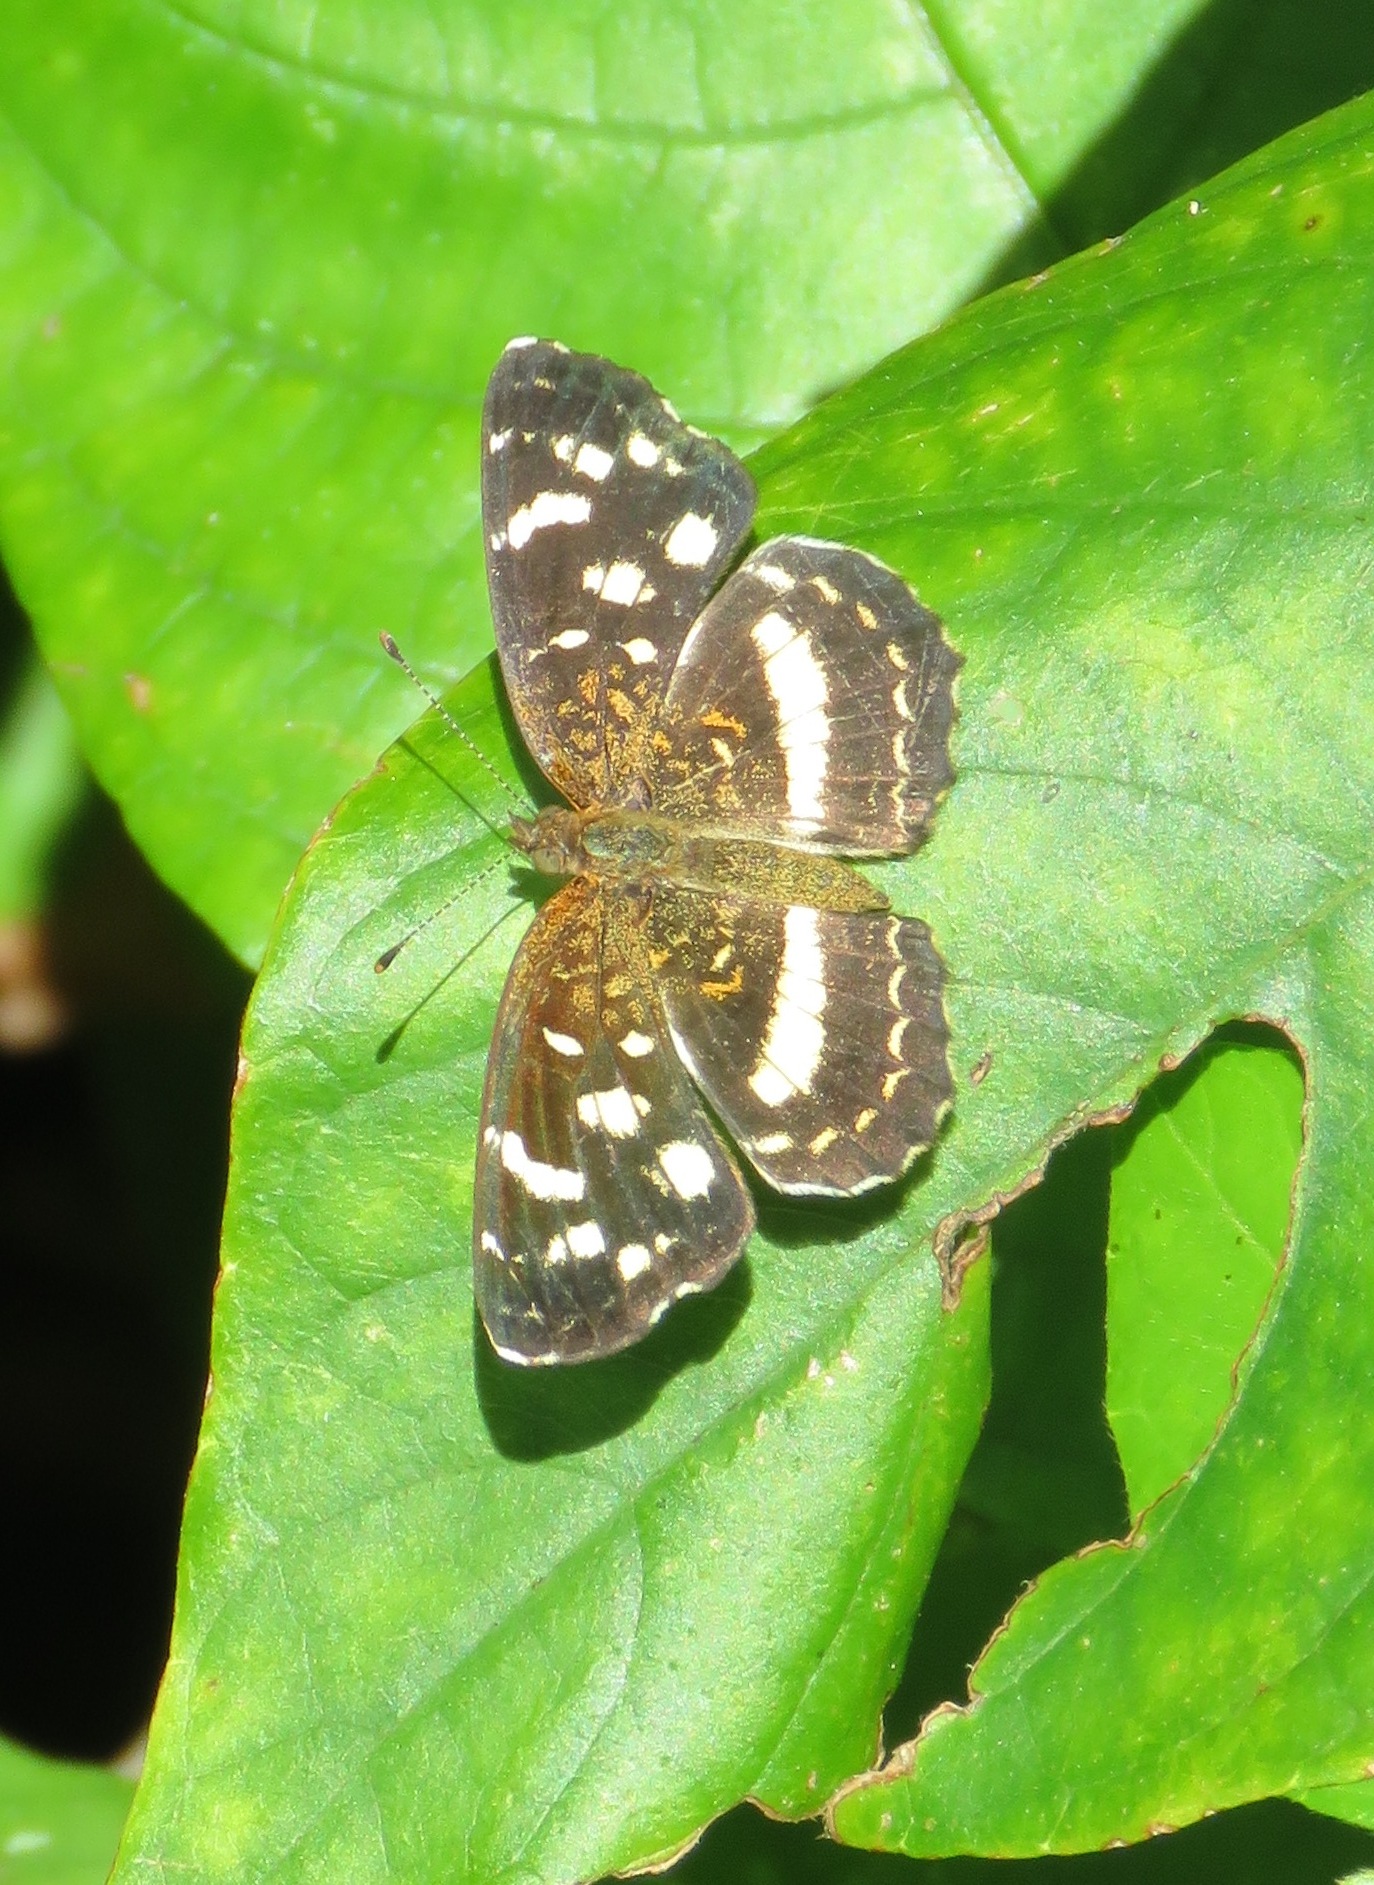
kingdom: Animalia
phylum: Arthropoda
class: Insecta
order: Lepidoptera
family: Nymphalidae
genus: Anthanassa
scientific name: Anthanassa tulcis
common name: Pale-banded crescent
